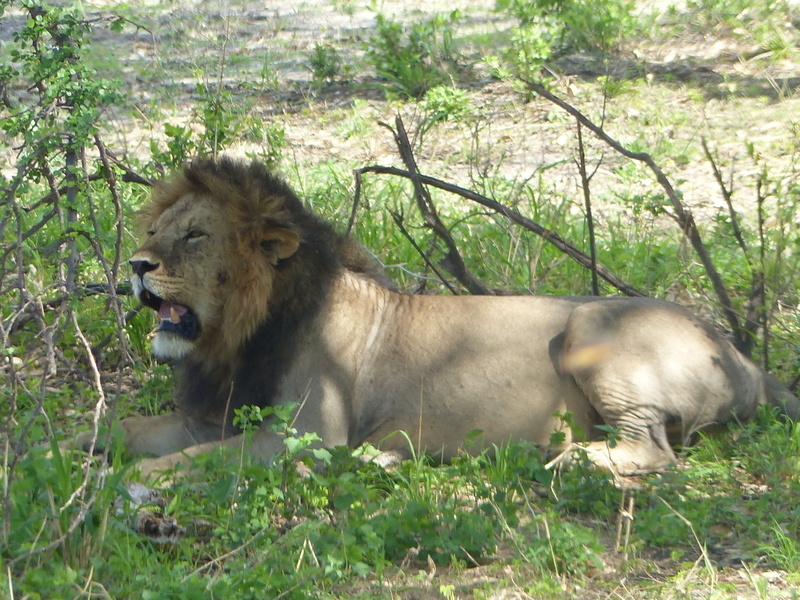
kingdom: Animalia
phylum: Chordata
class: Mammalia
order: Carnivora
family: Felidae
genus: Panthera
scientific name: Panthera leo
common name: Lion
